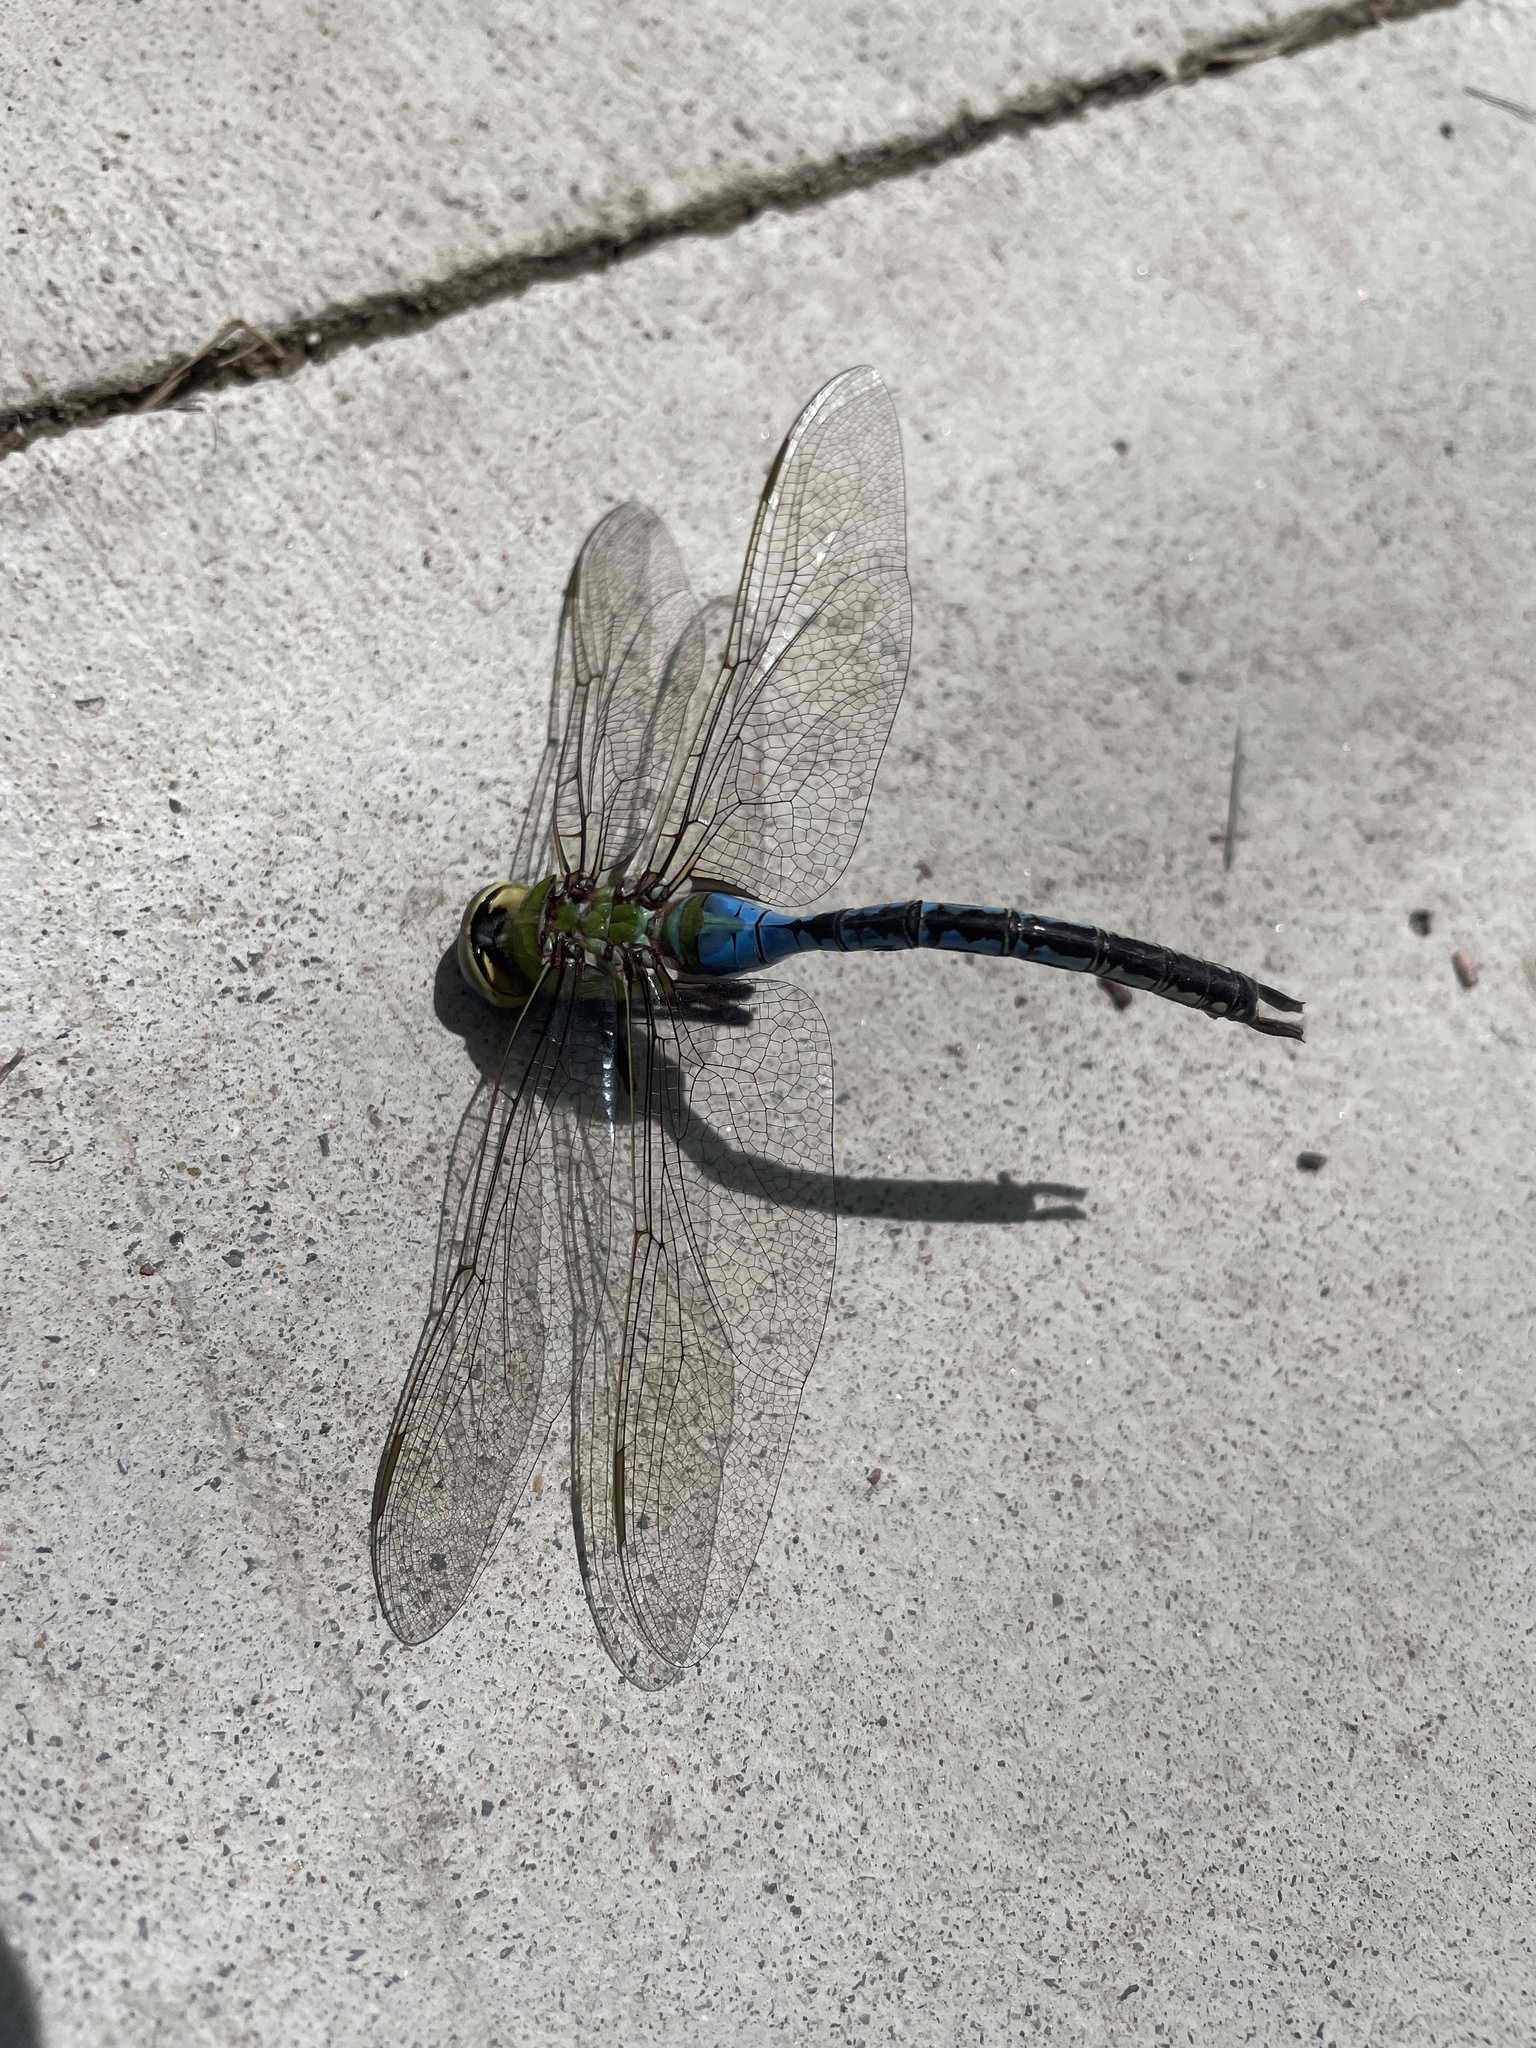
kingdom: Animalia
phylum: Arthropoda
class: Insecta
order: Odonata
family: Aeshnidae
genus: Anax
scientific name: Anax junius
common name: Common green darner
